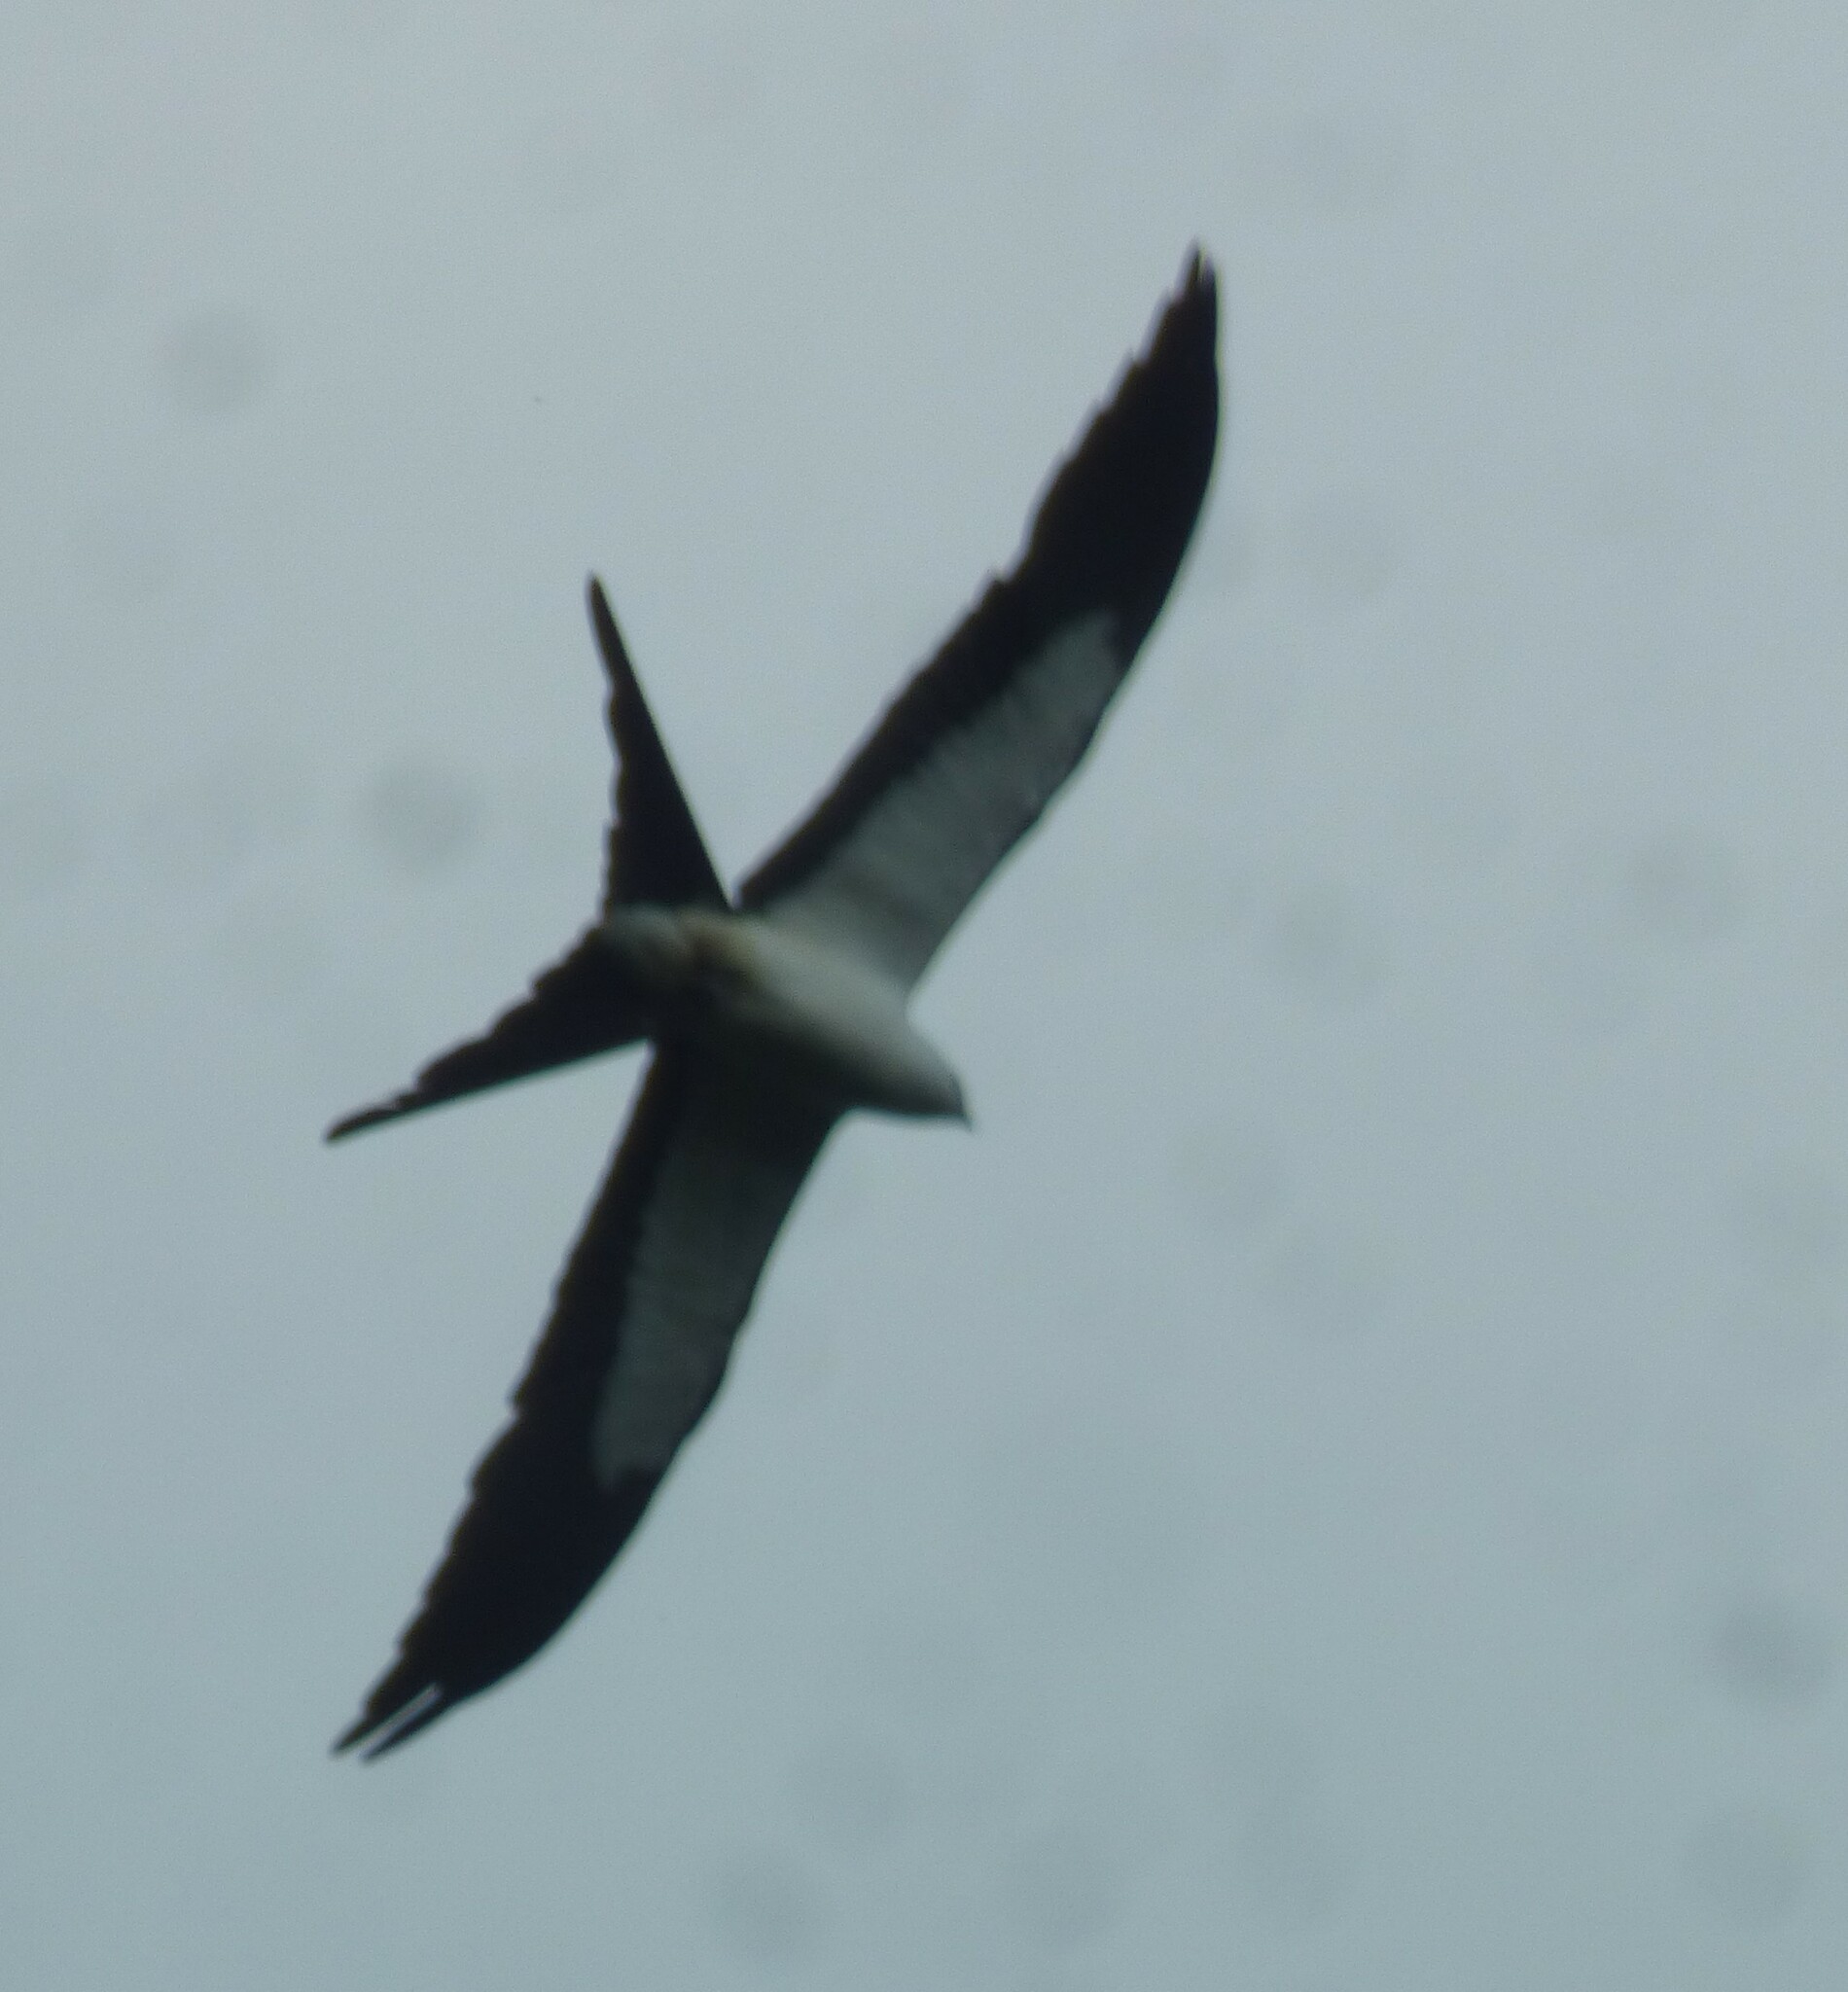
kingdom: Animalia
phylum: Chordata
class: Aves
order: Accipitriformes
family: Accipitridae
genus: Elanoides
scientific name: Elanoides forficatus
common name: Swallow-tailed kite
